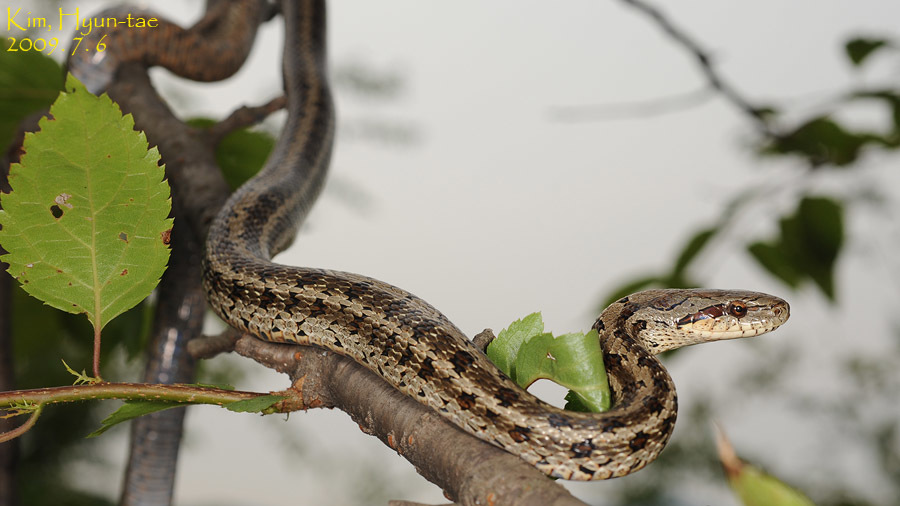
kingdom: Animalia
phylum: Chordata
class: Squamata
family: Colubridae
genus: Elaphe
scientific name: Elaphe dione
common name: Dione ratsnake
